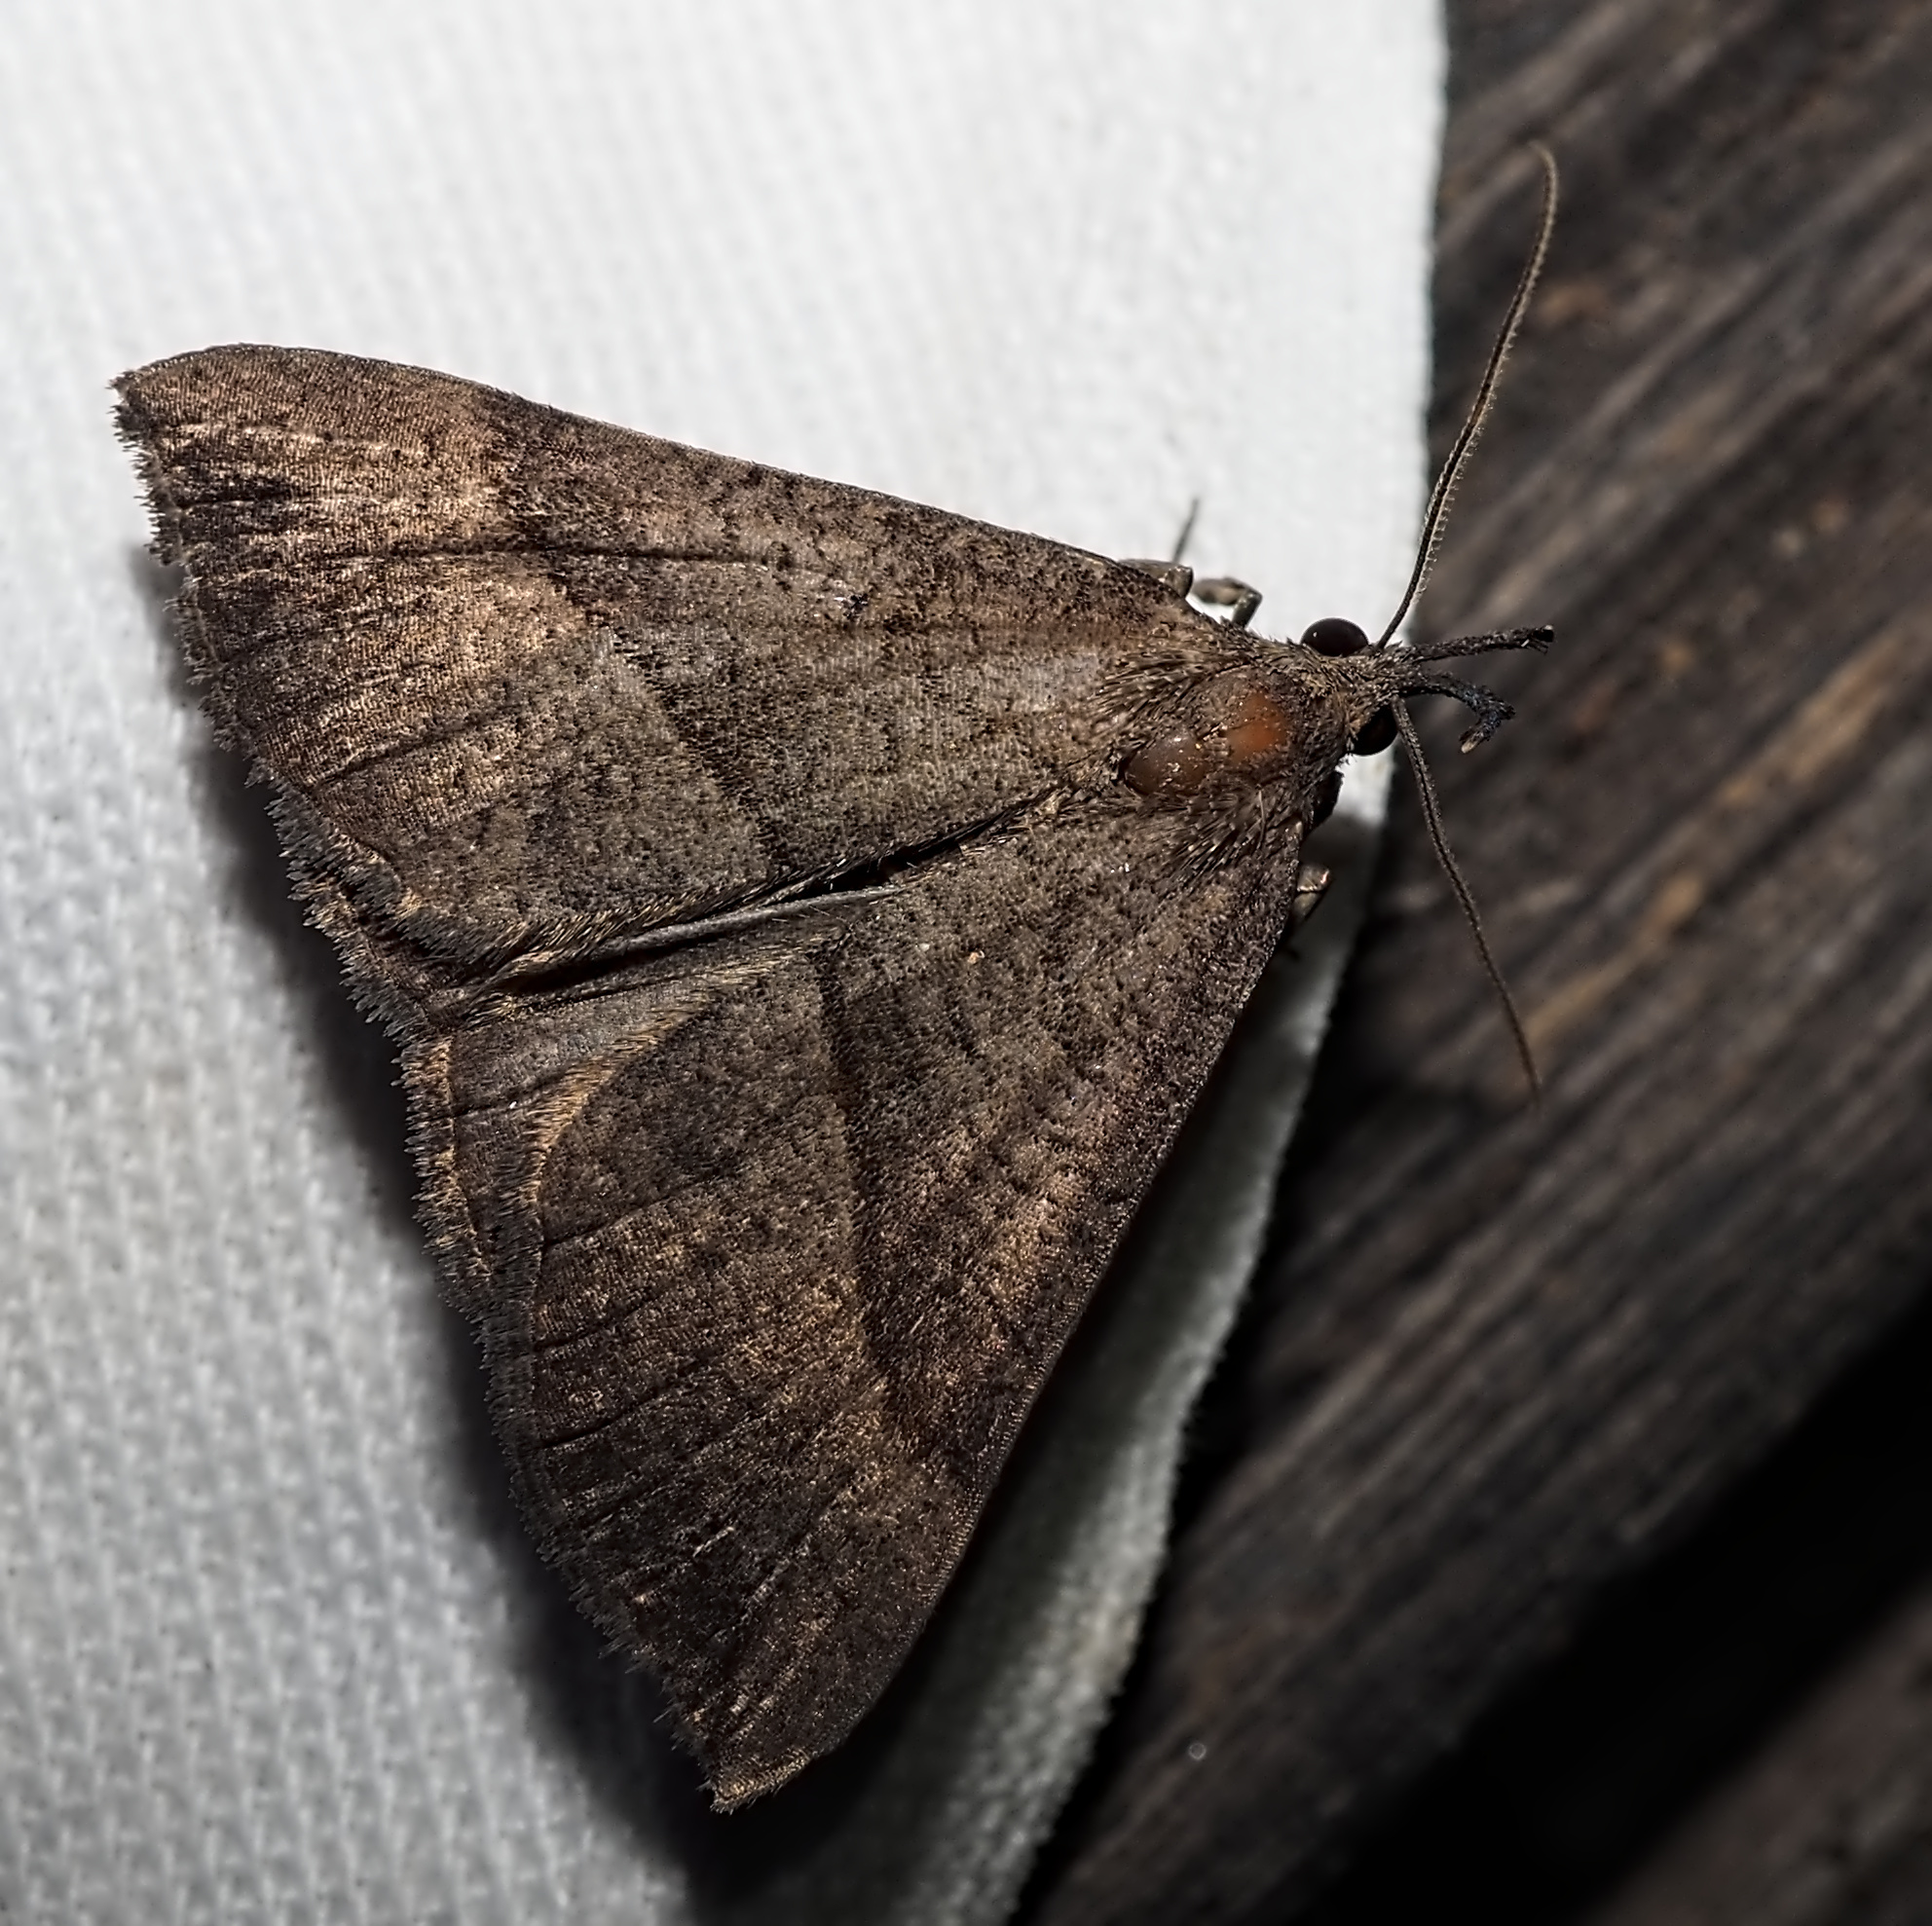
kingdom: Animalia
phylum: Arthropoda
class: Insecta
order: Lepidoptera
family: Erebidae
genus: Hypena
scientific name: Hypena proboscidalis
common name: Snout
